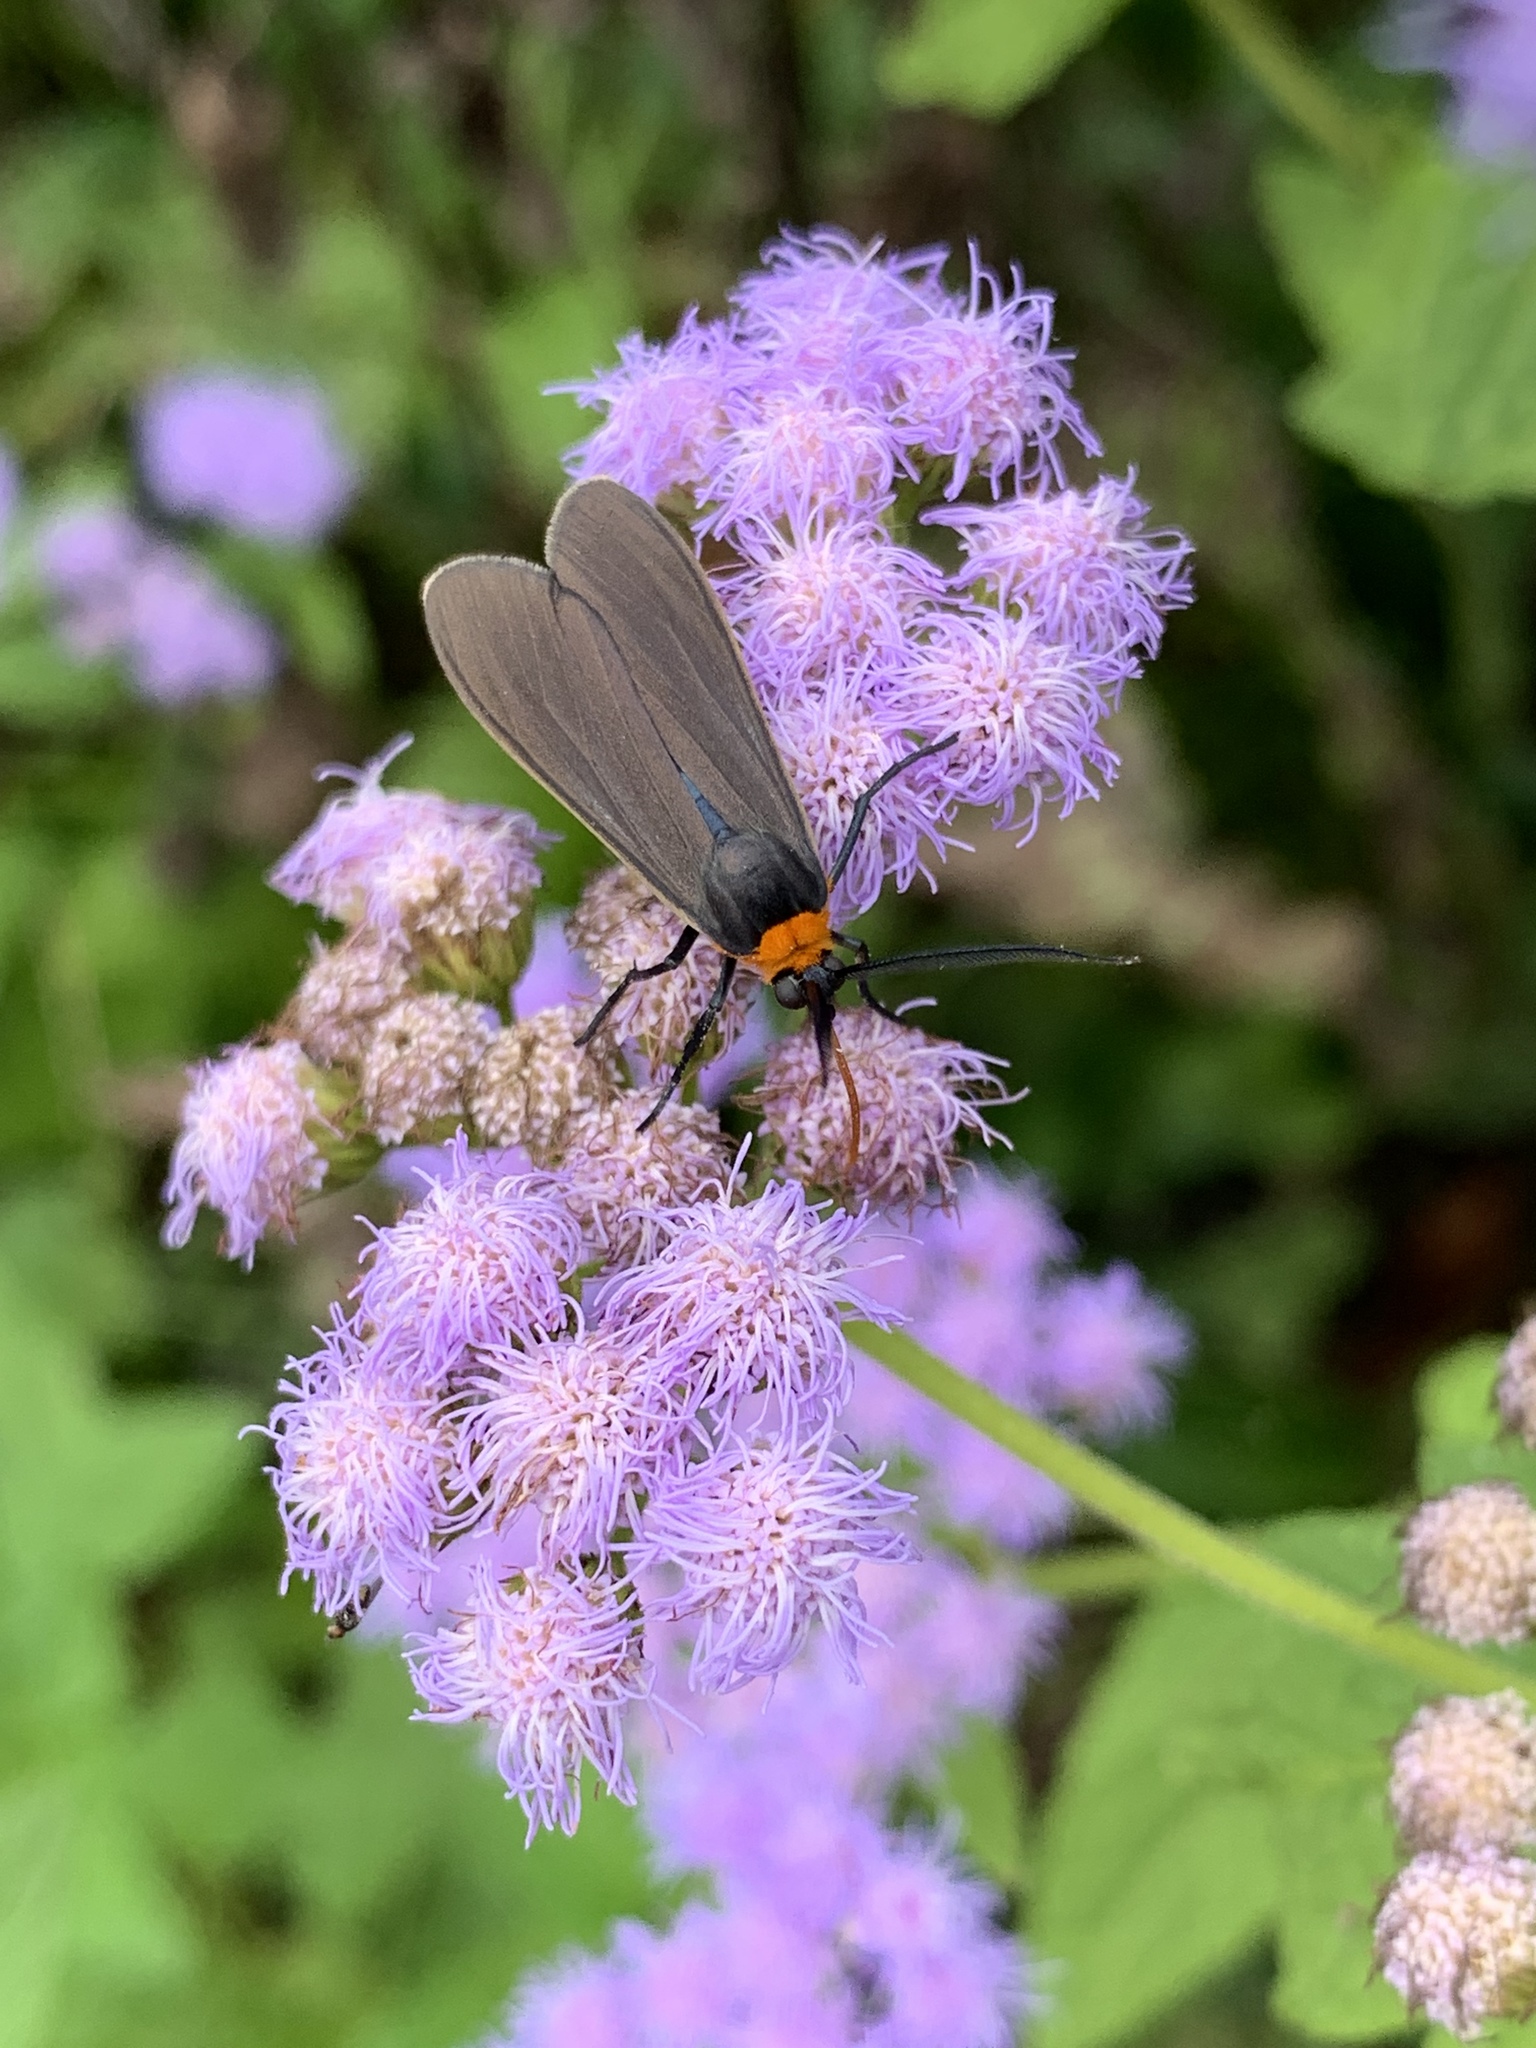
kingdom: Animalia
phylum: Arthropoda
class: Insecta
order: Lepidoptera
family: Erebidae
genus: Cisseps
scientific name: Cisseps fulvicollis
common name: Yellow-collared scape moth
